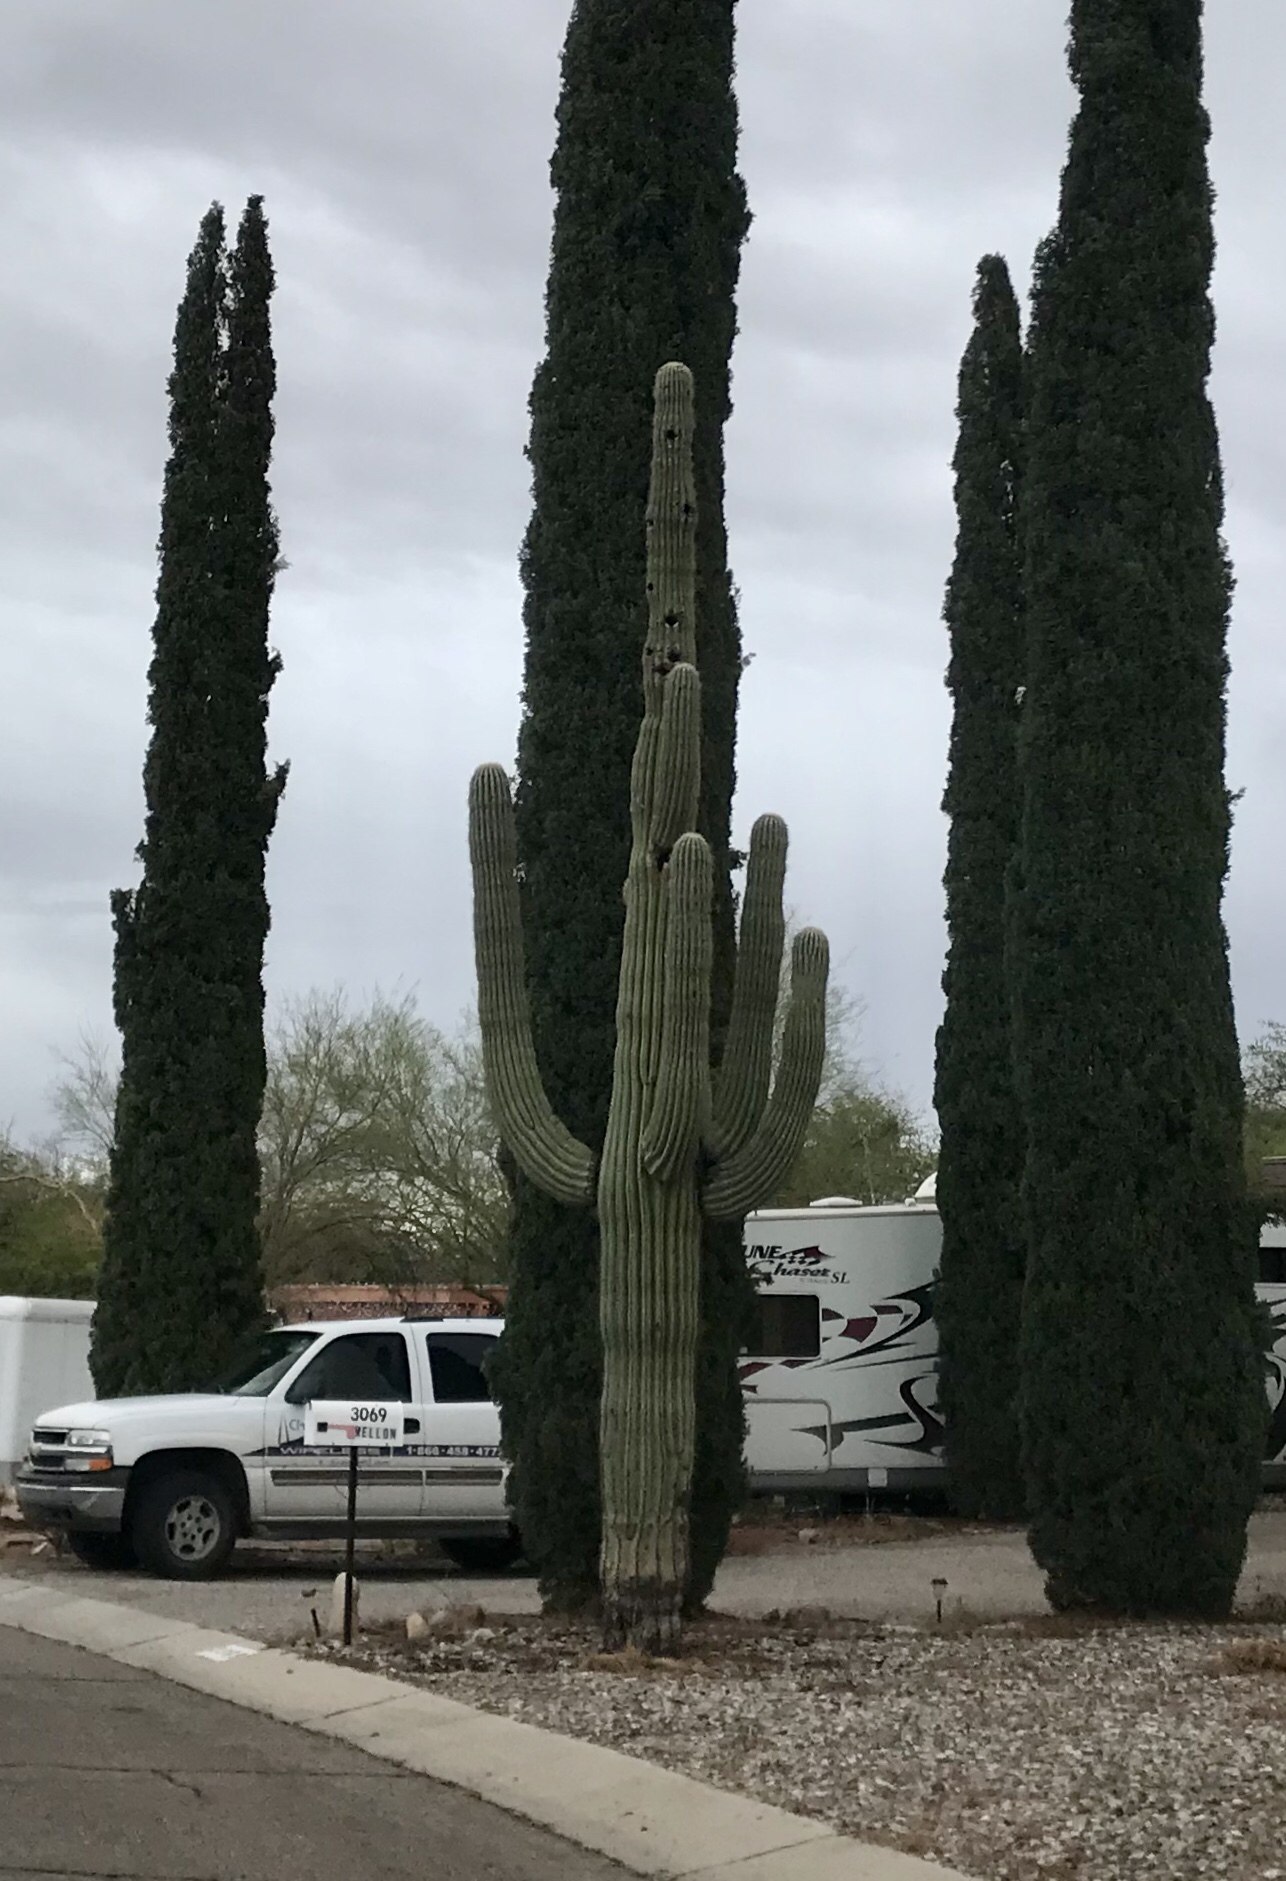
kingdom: Plantae
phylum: Tracheophyta
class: Magnoliopsida
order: Caryophyllales
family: Cactaceae
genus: Carnegiea
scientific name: Carnegiea gigantea
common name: Saguaro
